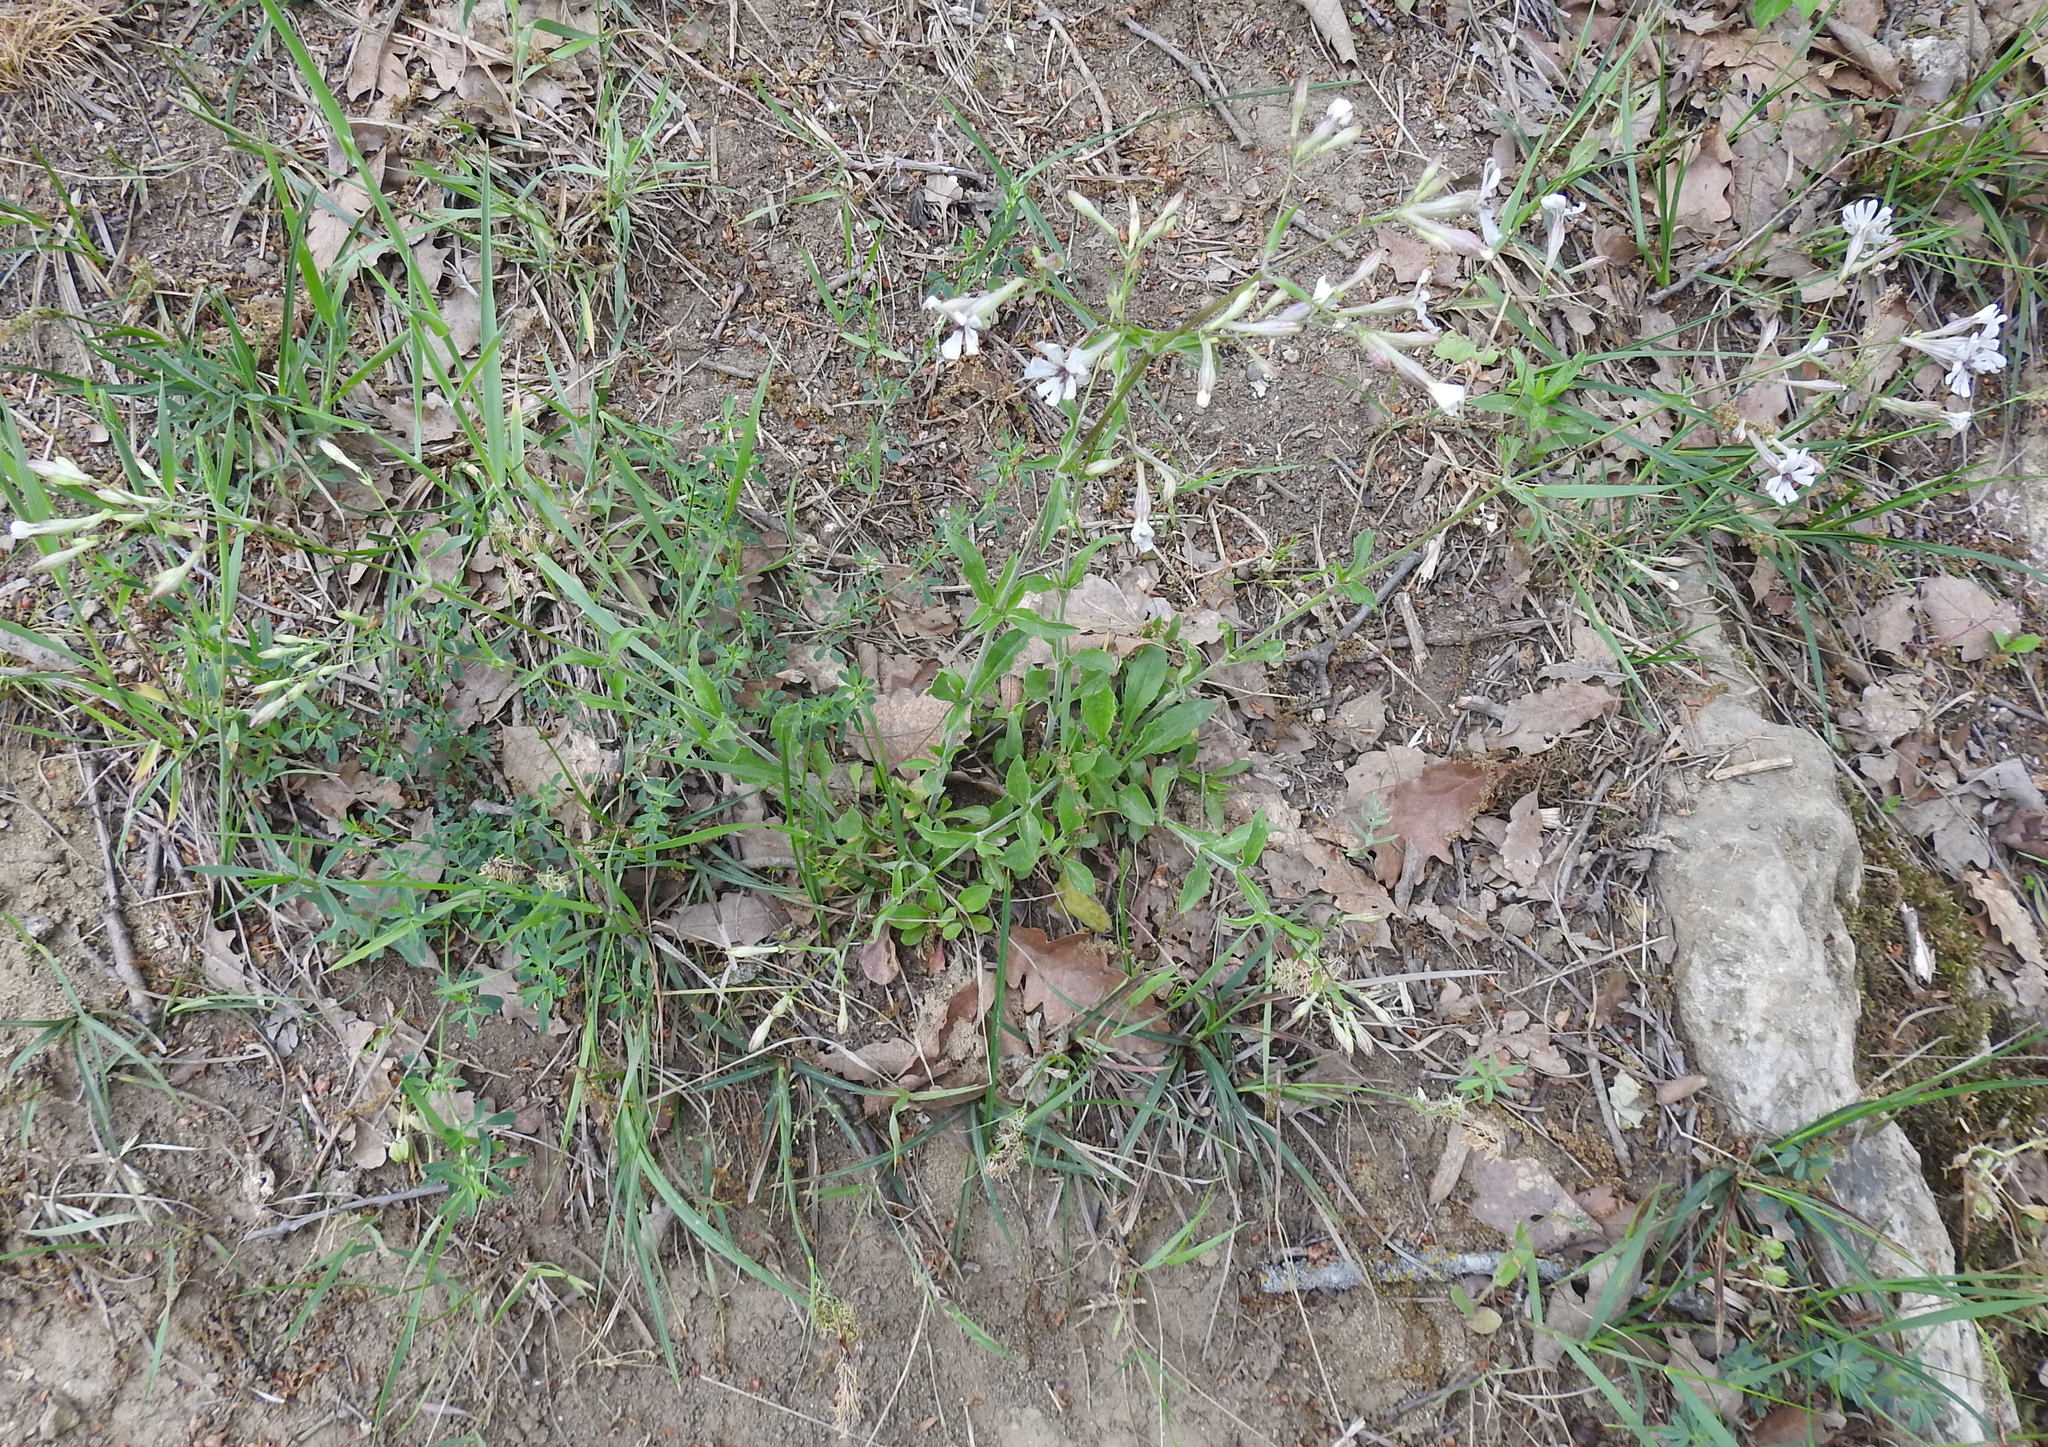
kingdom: Plantae
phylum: Tracheophyta
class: Magnoliopsida
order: Caryophyllales
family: Caryophyllaceae
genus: Silene
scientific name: Silene italica
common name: Italian catchfly
